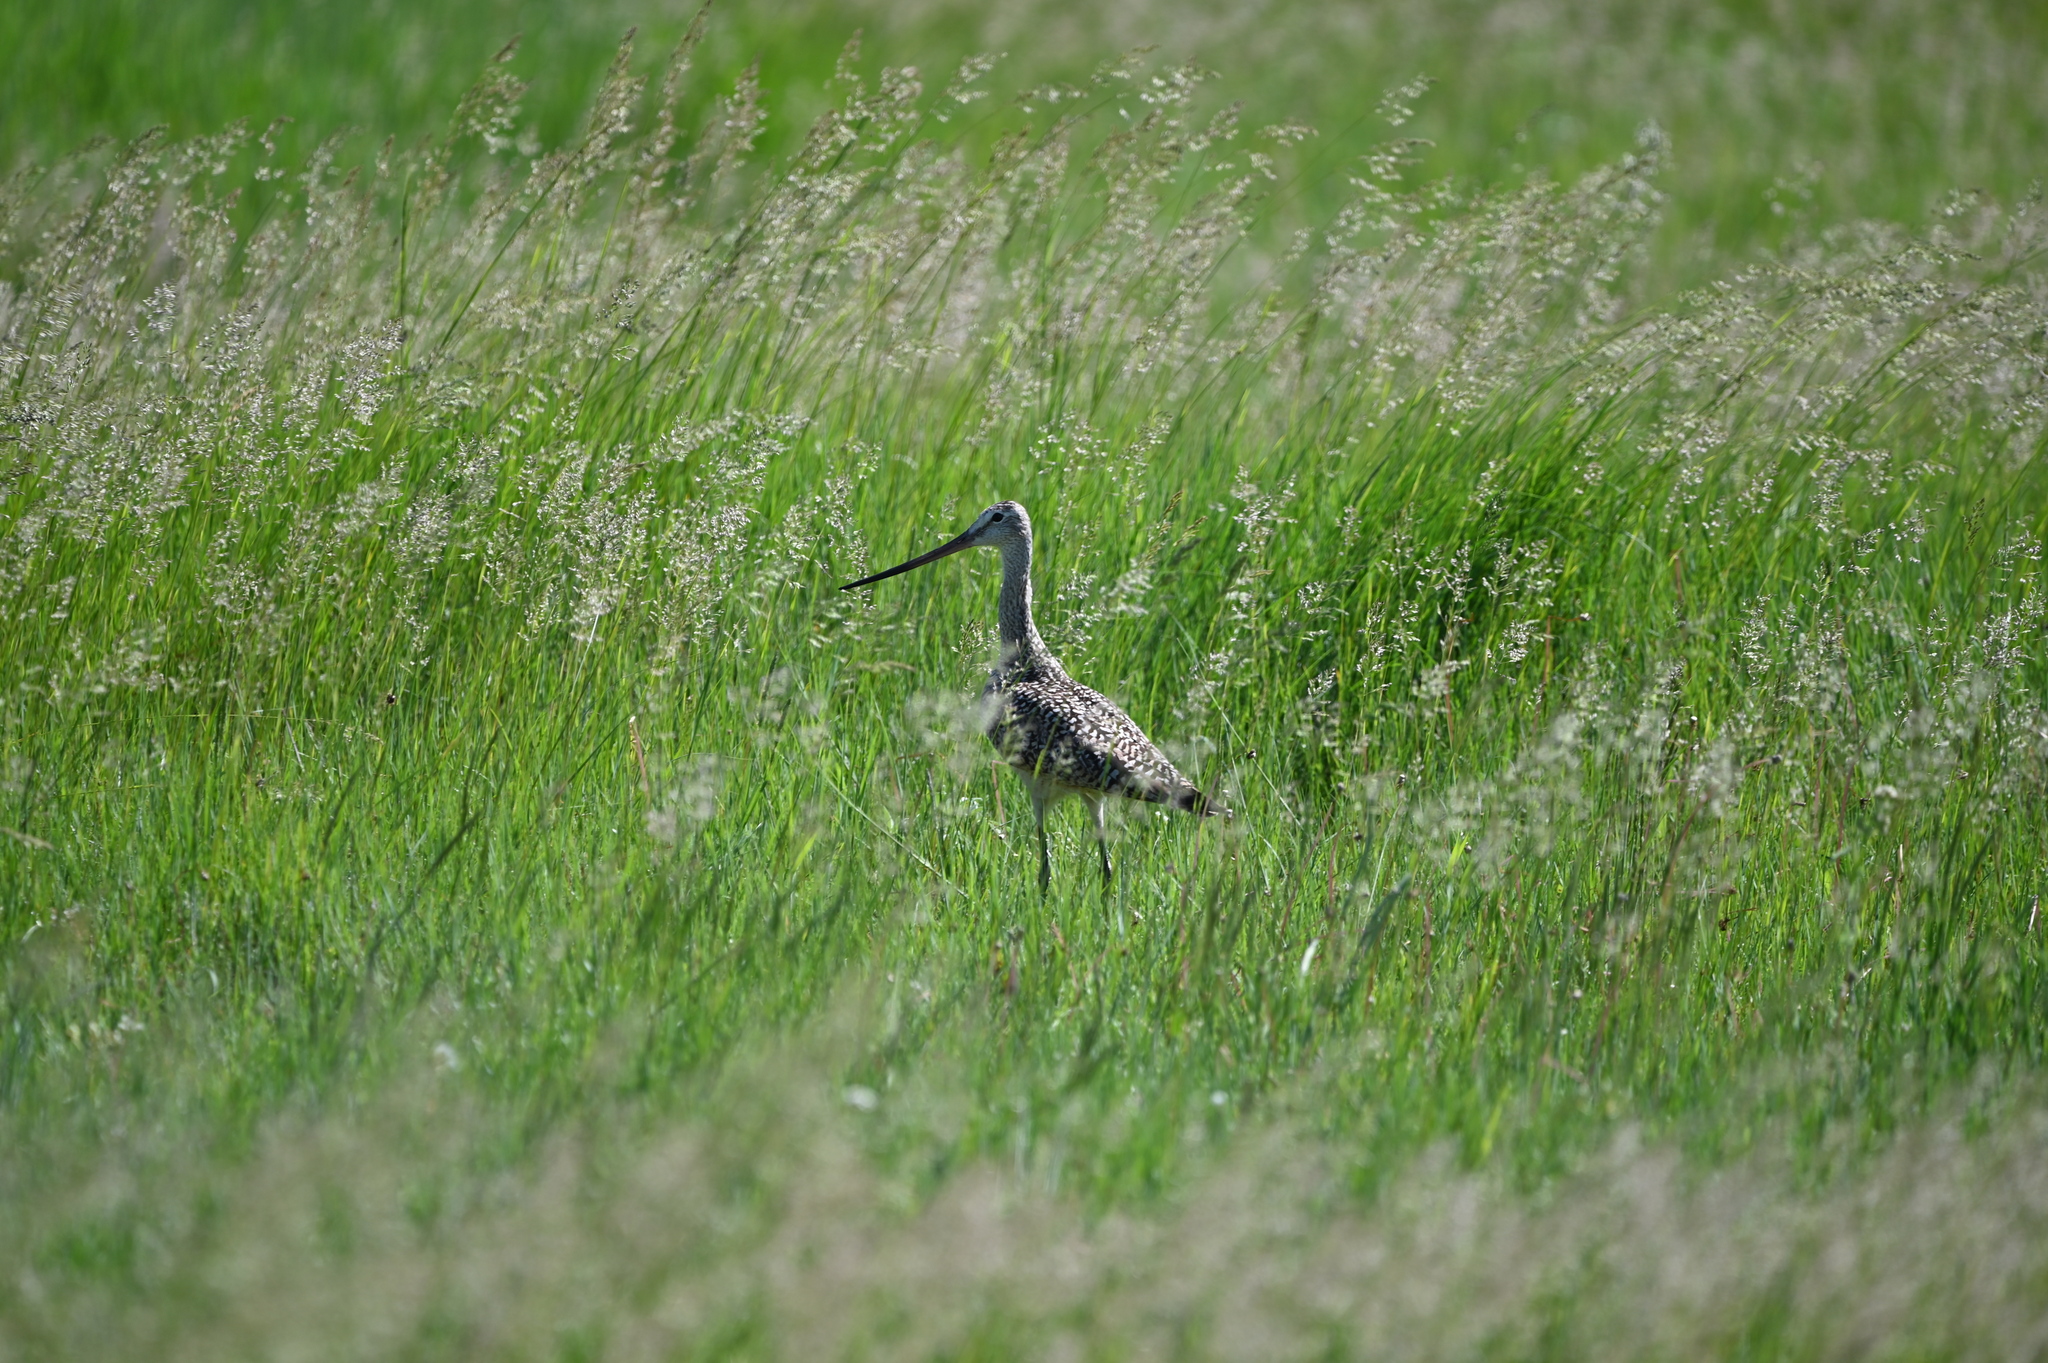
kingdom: Animalia
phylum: Chordata
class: Aves
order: Charadriiformes
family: Scolopacidae
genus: Limosa
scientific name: Limosa fedoa
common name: Marbled godwit
